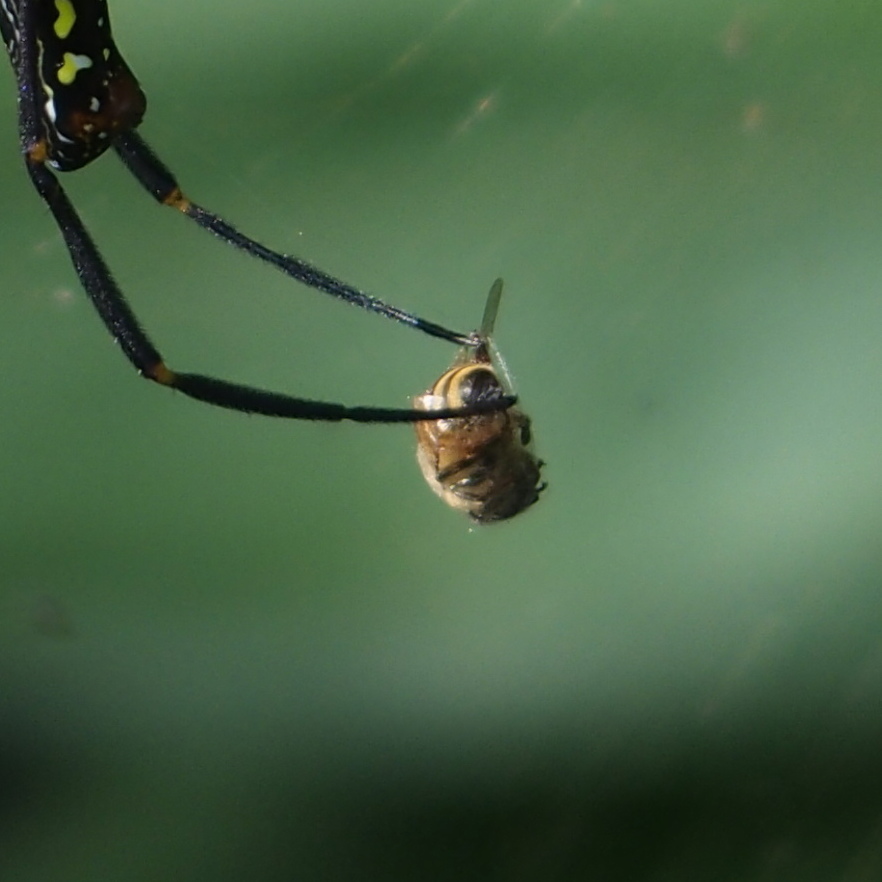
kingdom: Animalia
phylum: Arthropoda
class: Insecta
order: Hymenoptera
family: Apidae
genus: Apis
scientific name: Apis mellifera
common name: Honey bee
